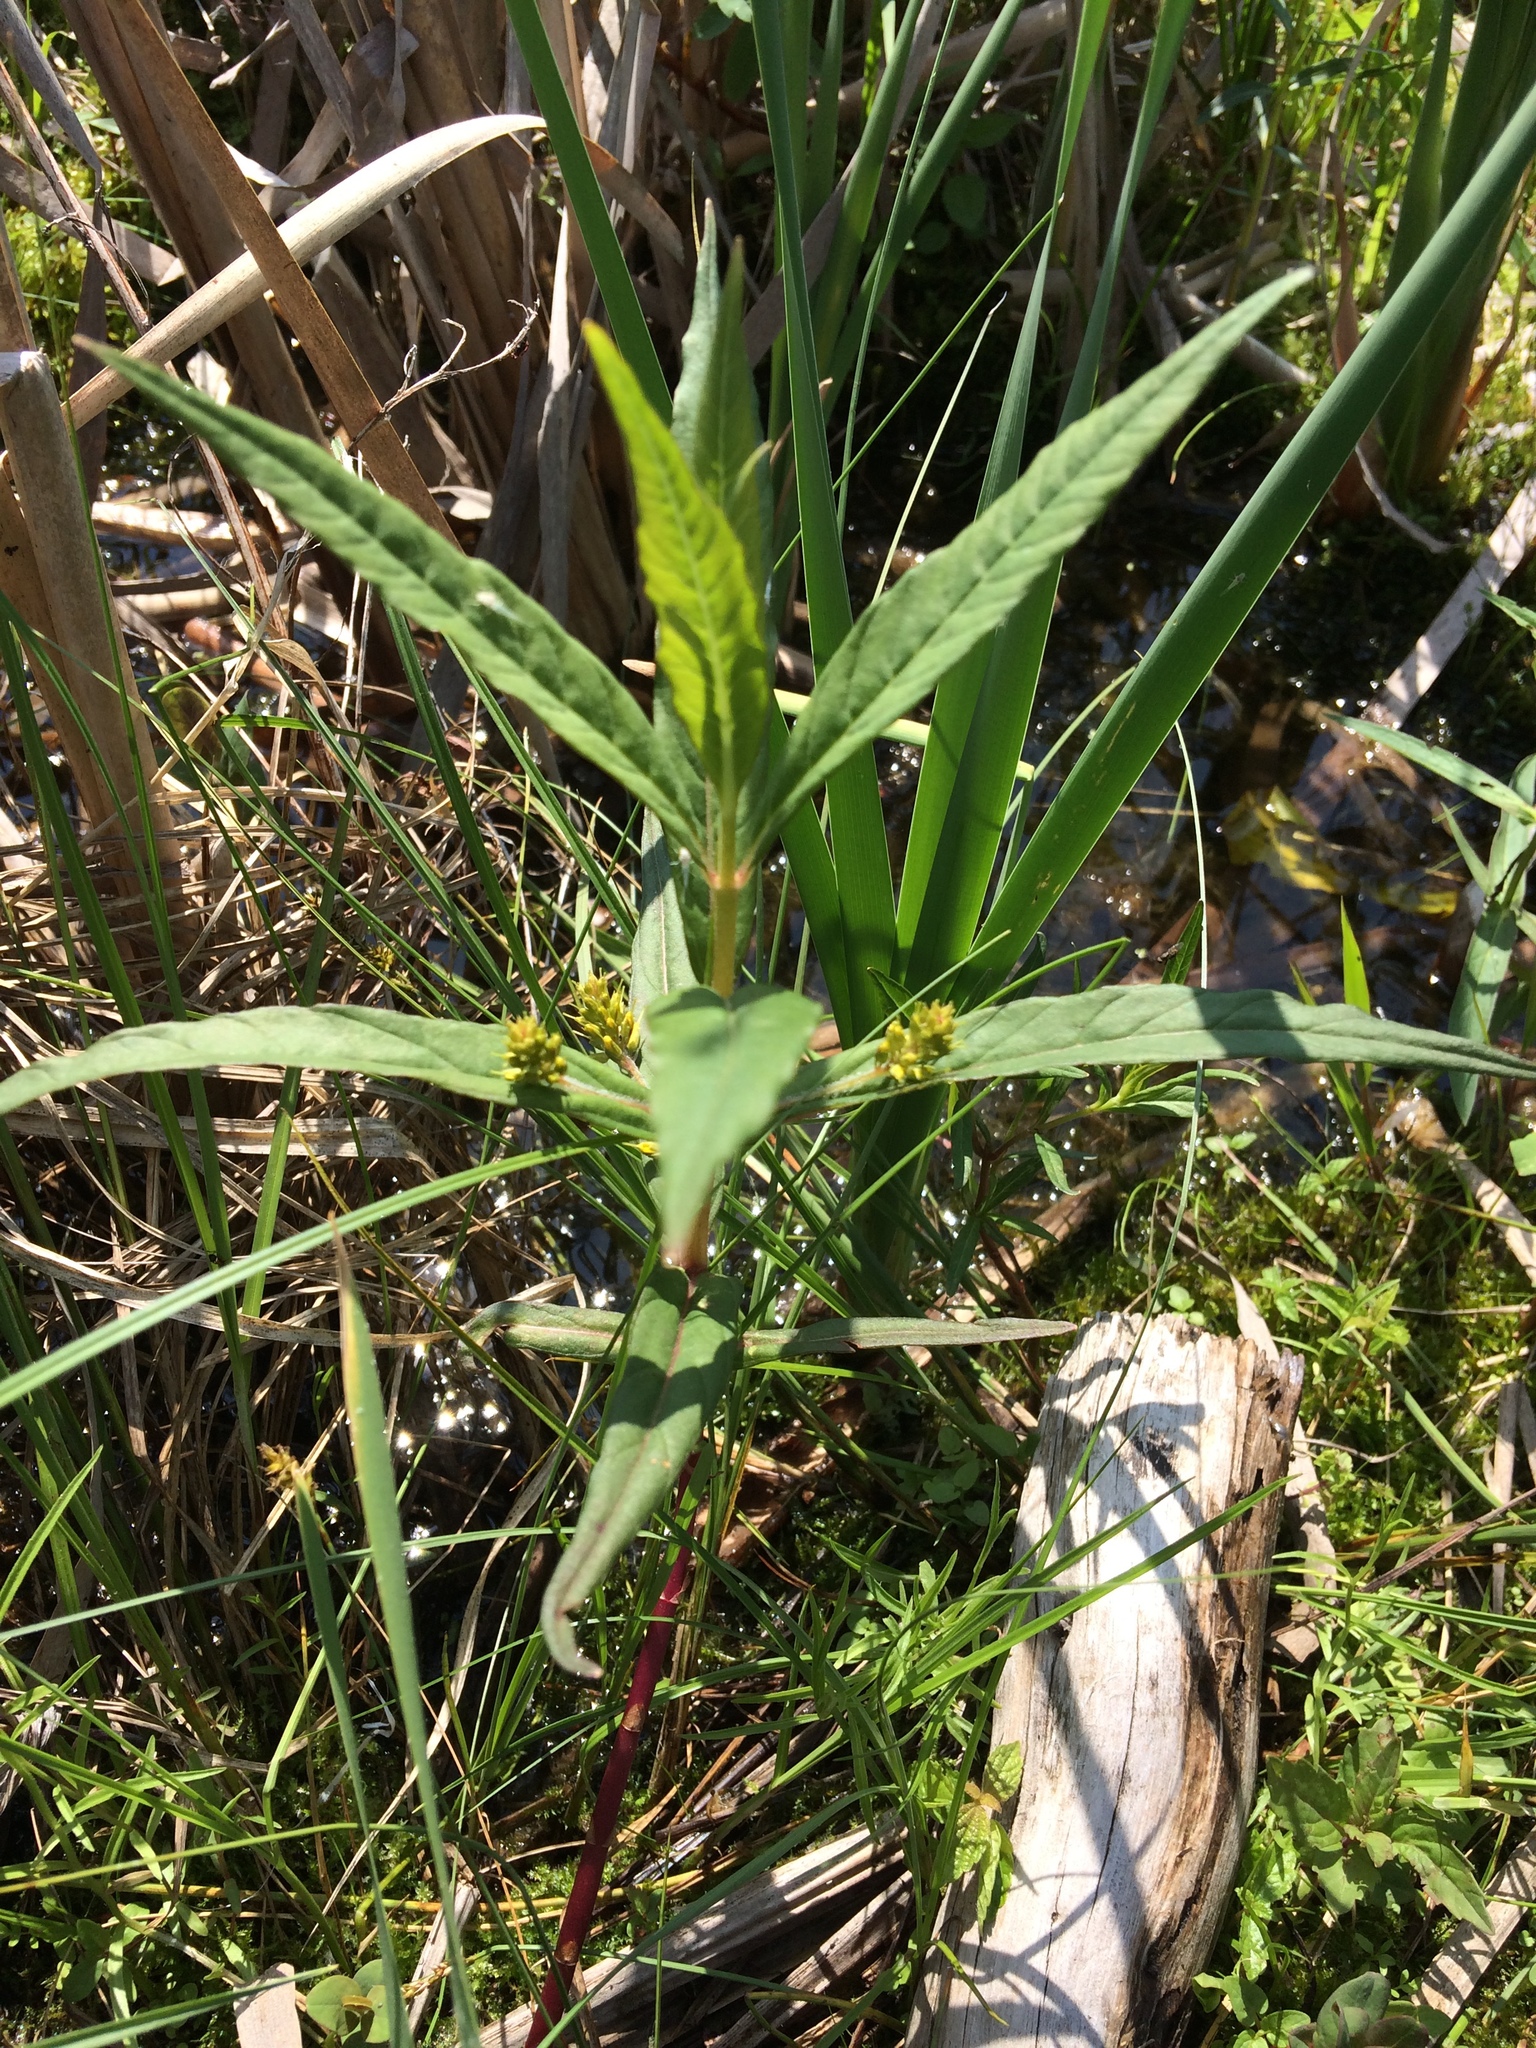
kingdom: Plantae
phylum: Tracheophyta
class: Magnoliopsida
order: Ericales
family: Primulaceae
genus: Lysimachia
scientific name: Lysimachia thyrsiflora
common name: Tufted loosestrife
